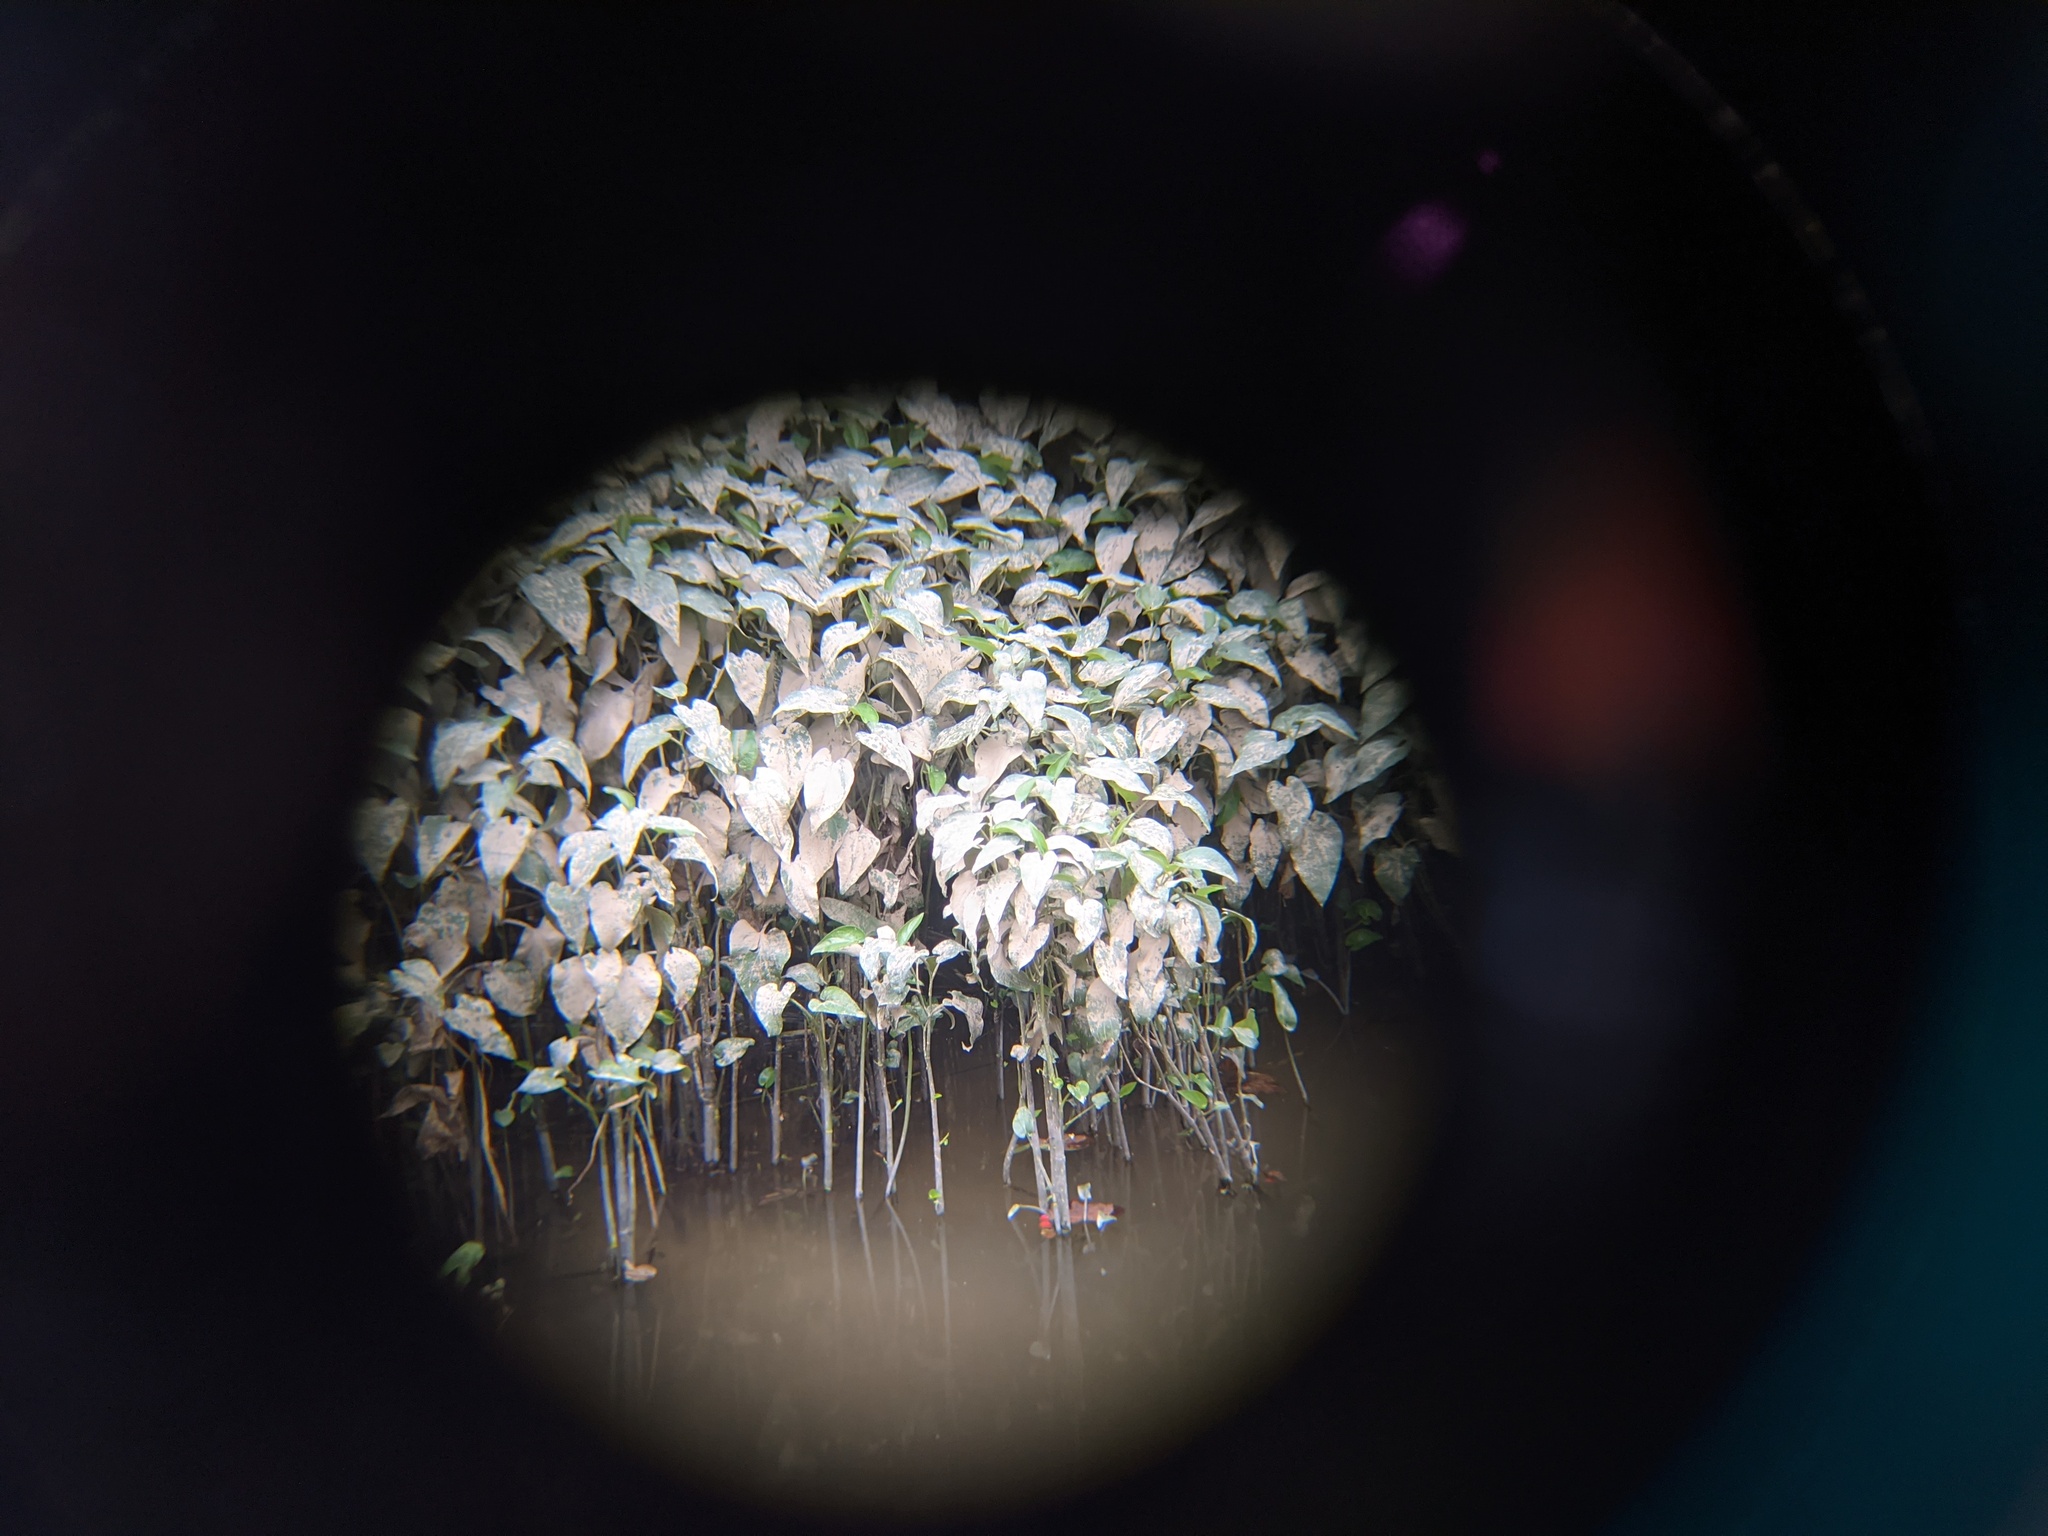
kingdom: Plantae
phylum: Tracheophyta
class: Magnoliopsida
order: Piperales
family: Saururaceae
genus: Saururus
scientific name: Saururus cernuus
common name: Lizard's-tail
